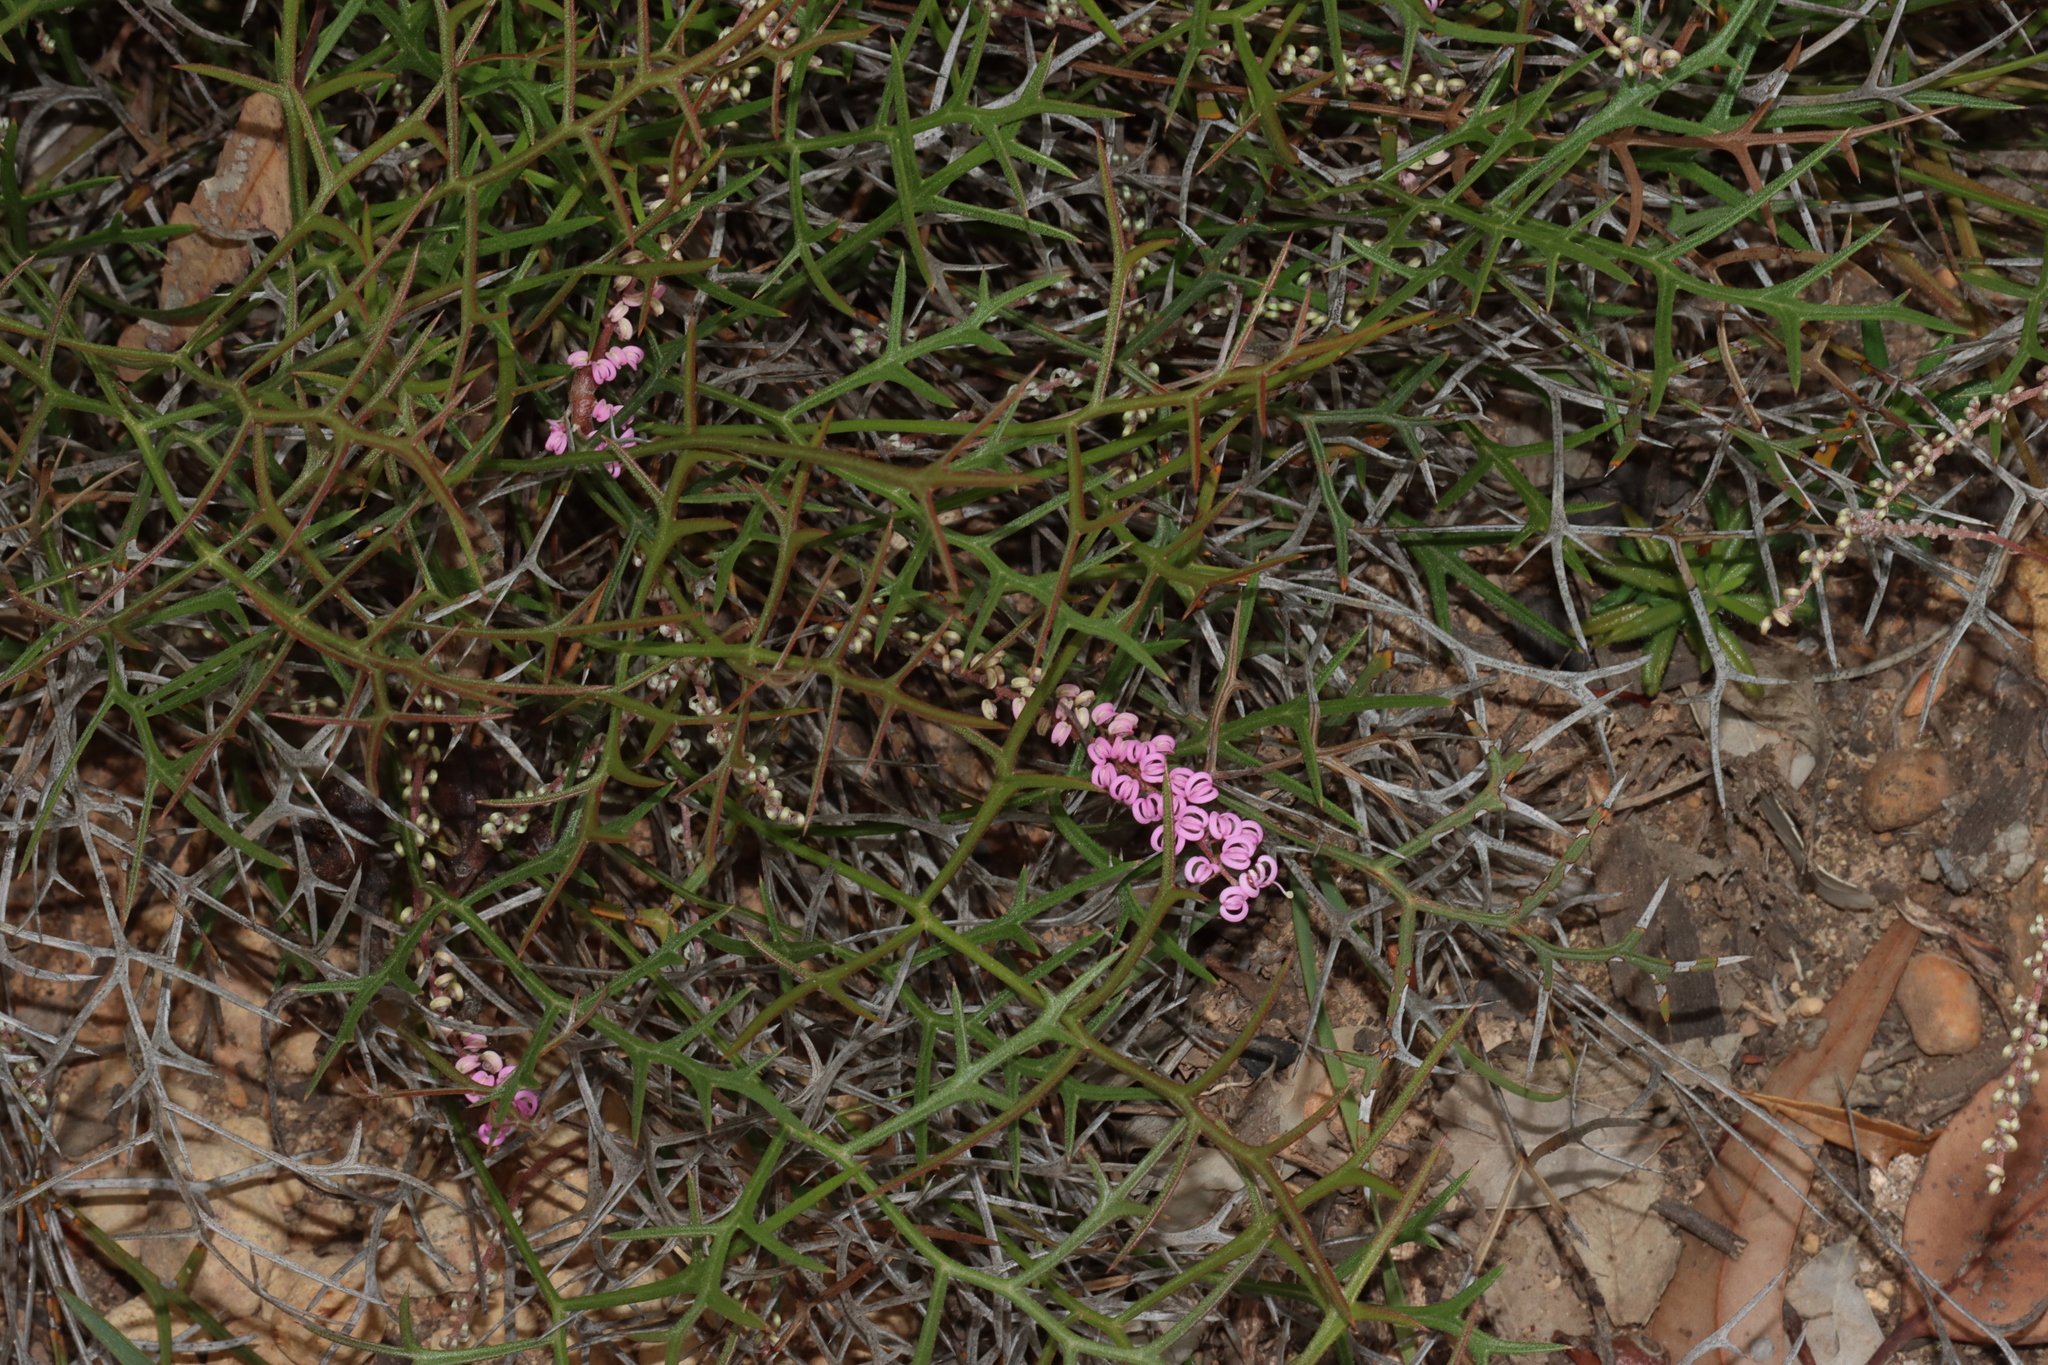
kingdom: Plantae
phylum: Tracheophyta
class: Magnoliopsida
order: Proteales
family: Proteaceae
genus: Grevillea
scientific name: Grevillea leptobotrys
